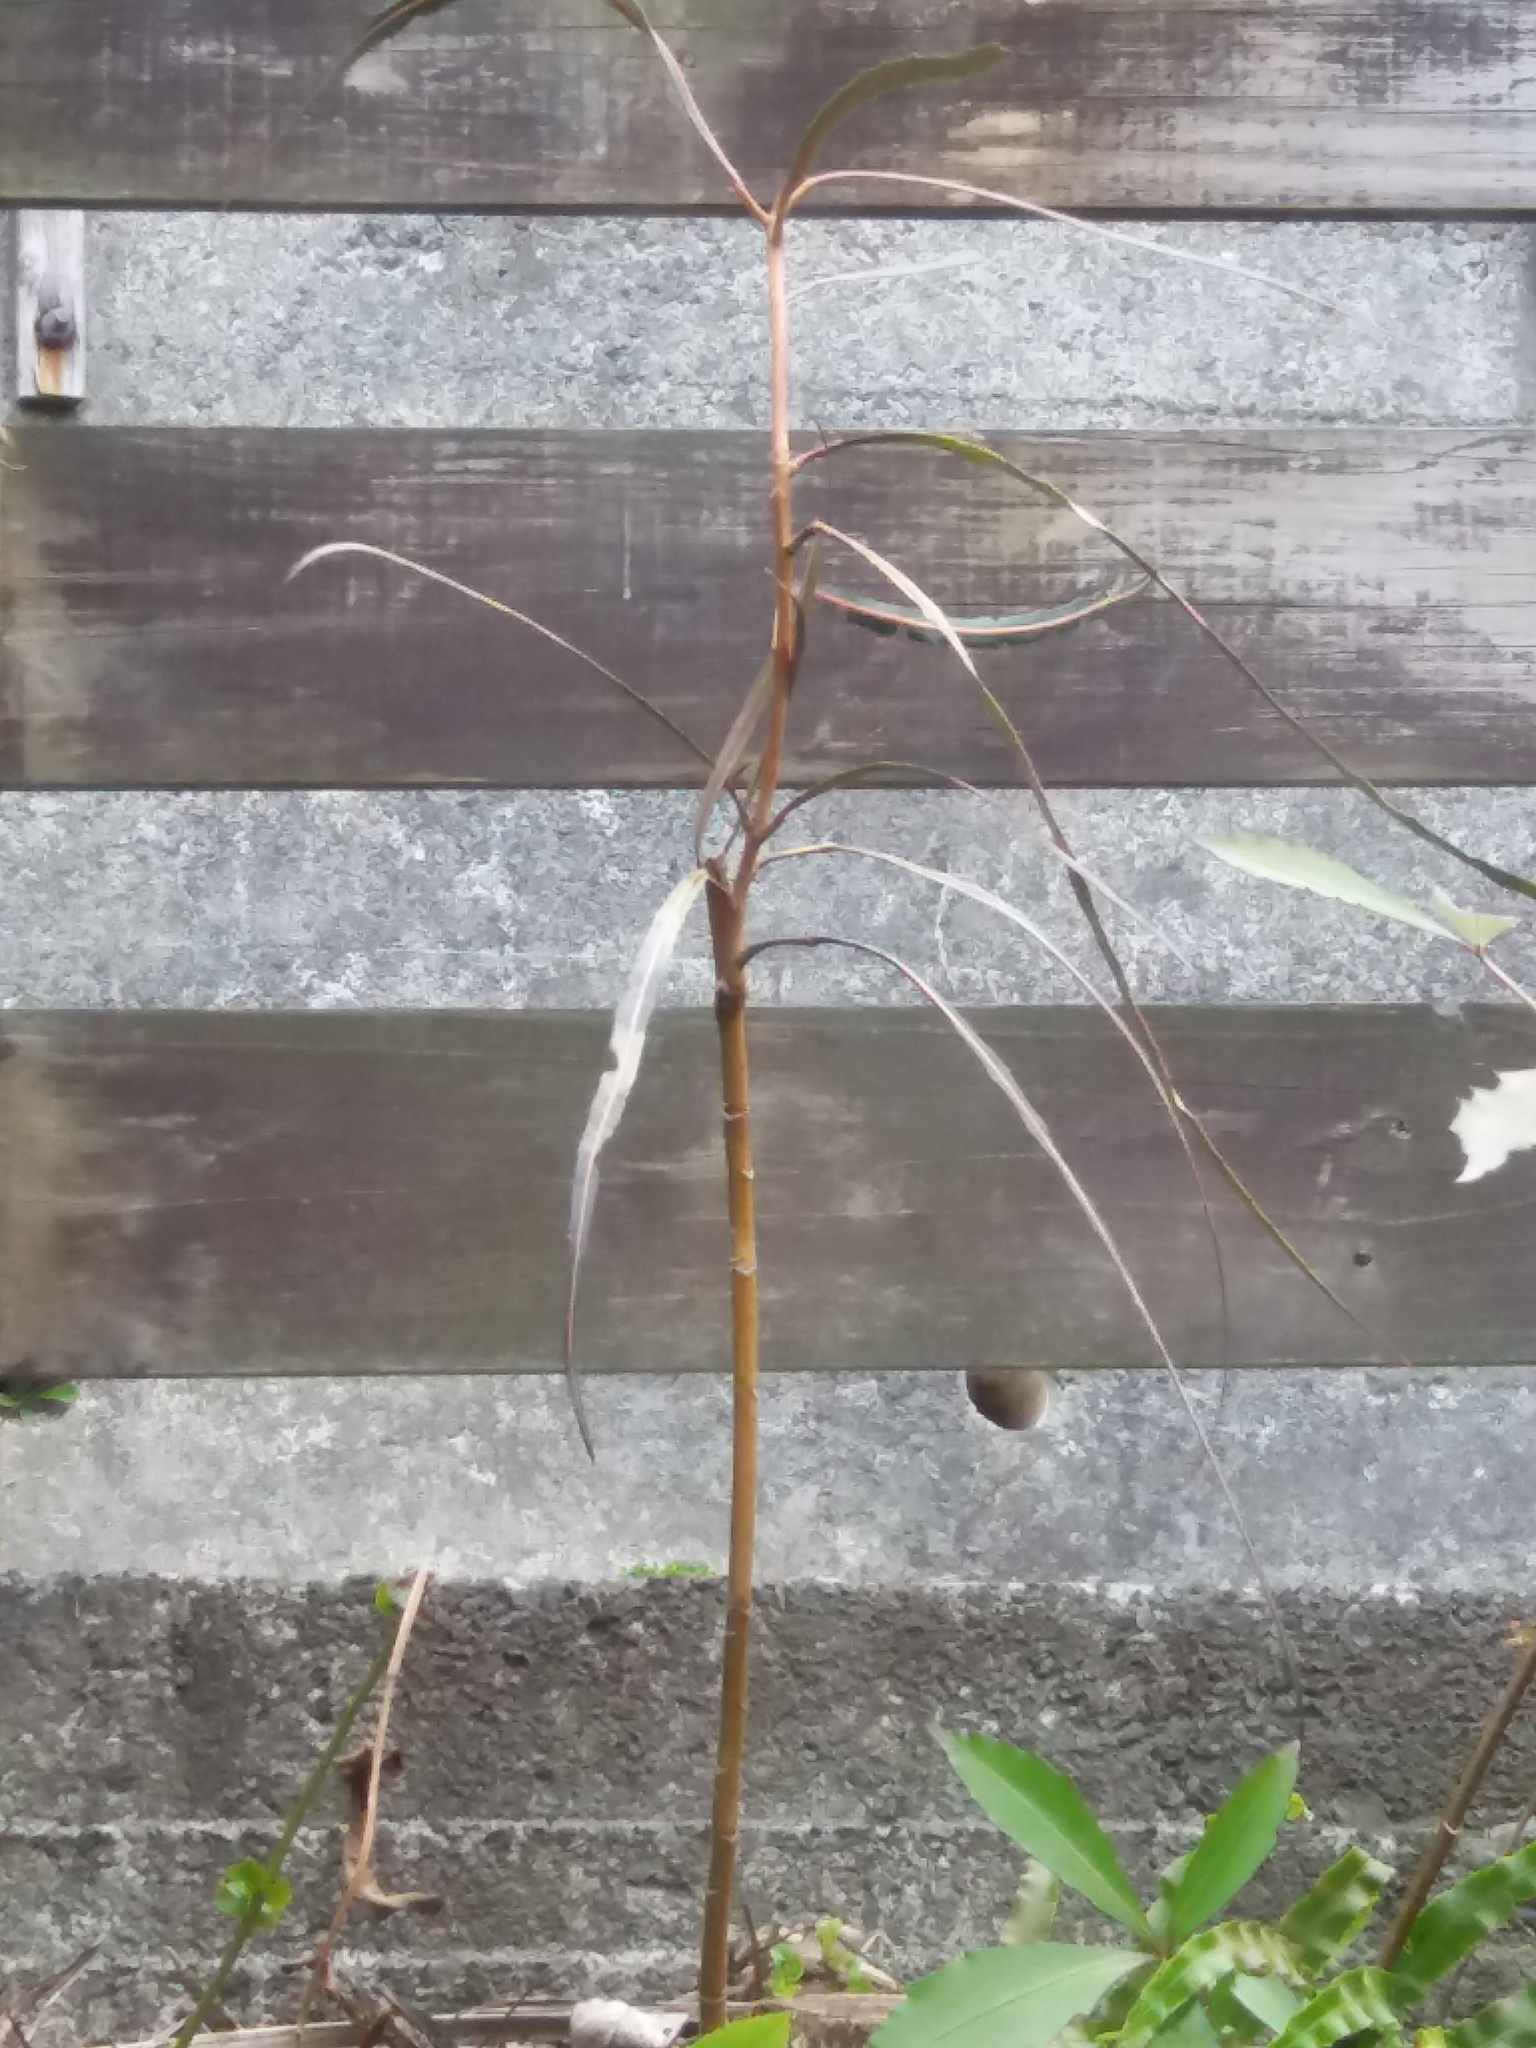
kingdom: Plantae
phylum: Tracheophyta
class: Magnoliopsida
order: Apiales
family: Araliaceae
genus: Pseudopanax
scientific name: Pseudopanax crassifolius
